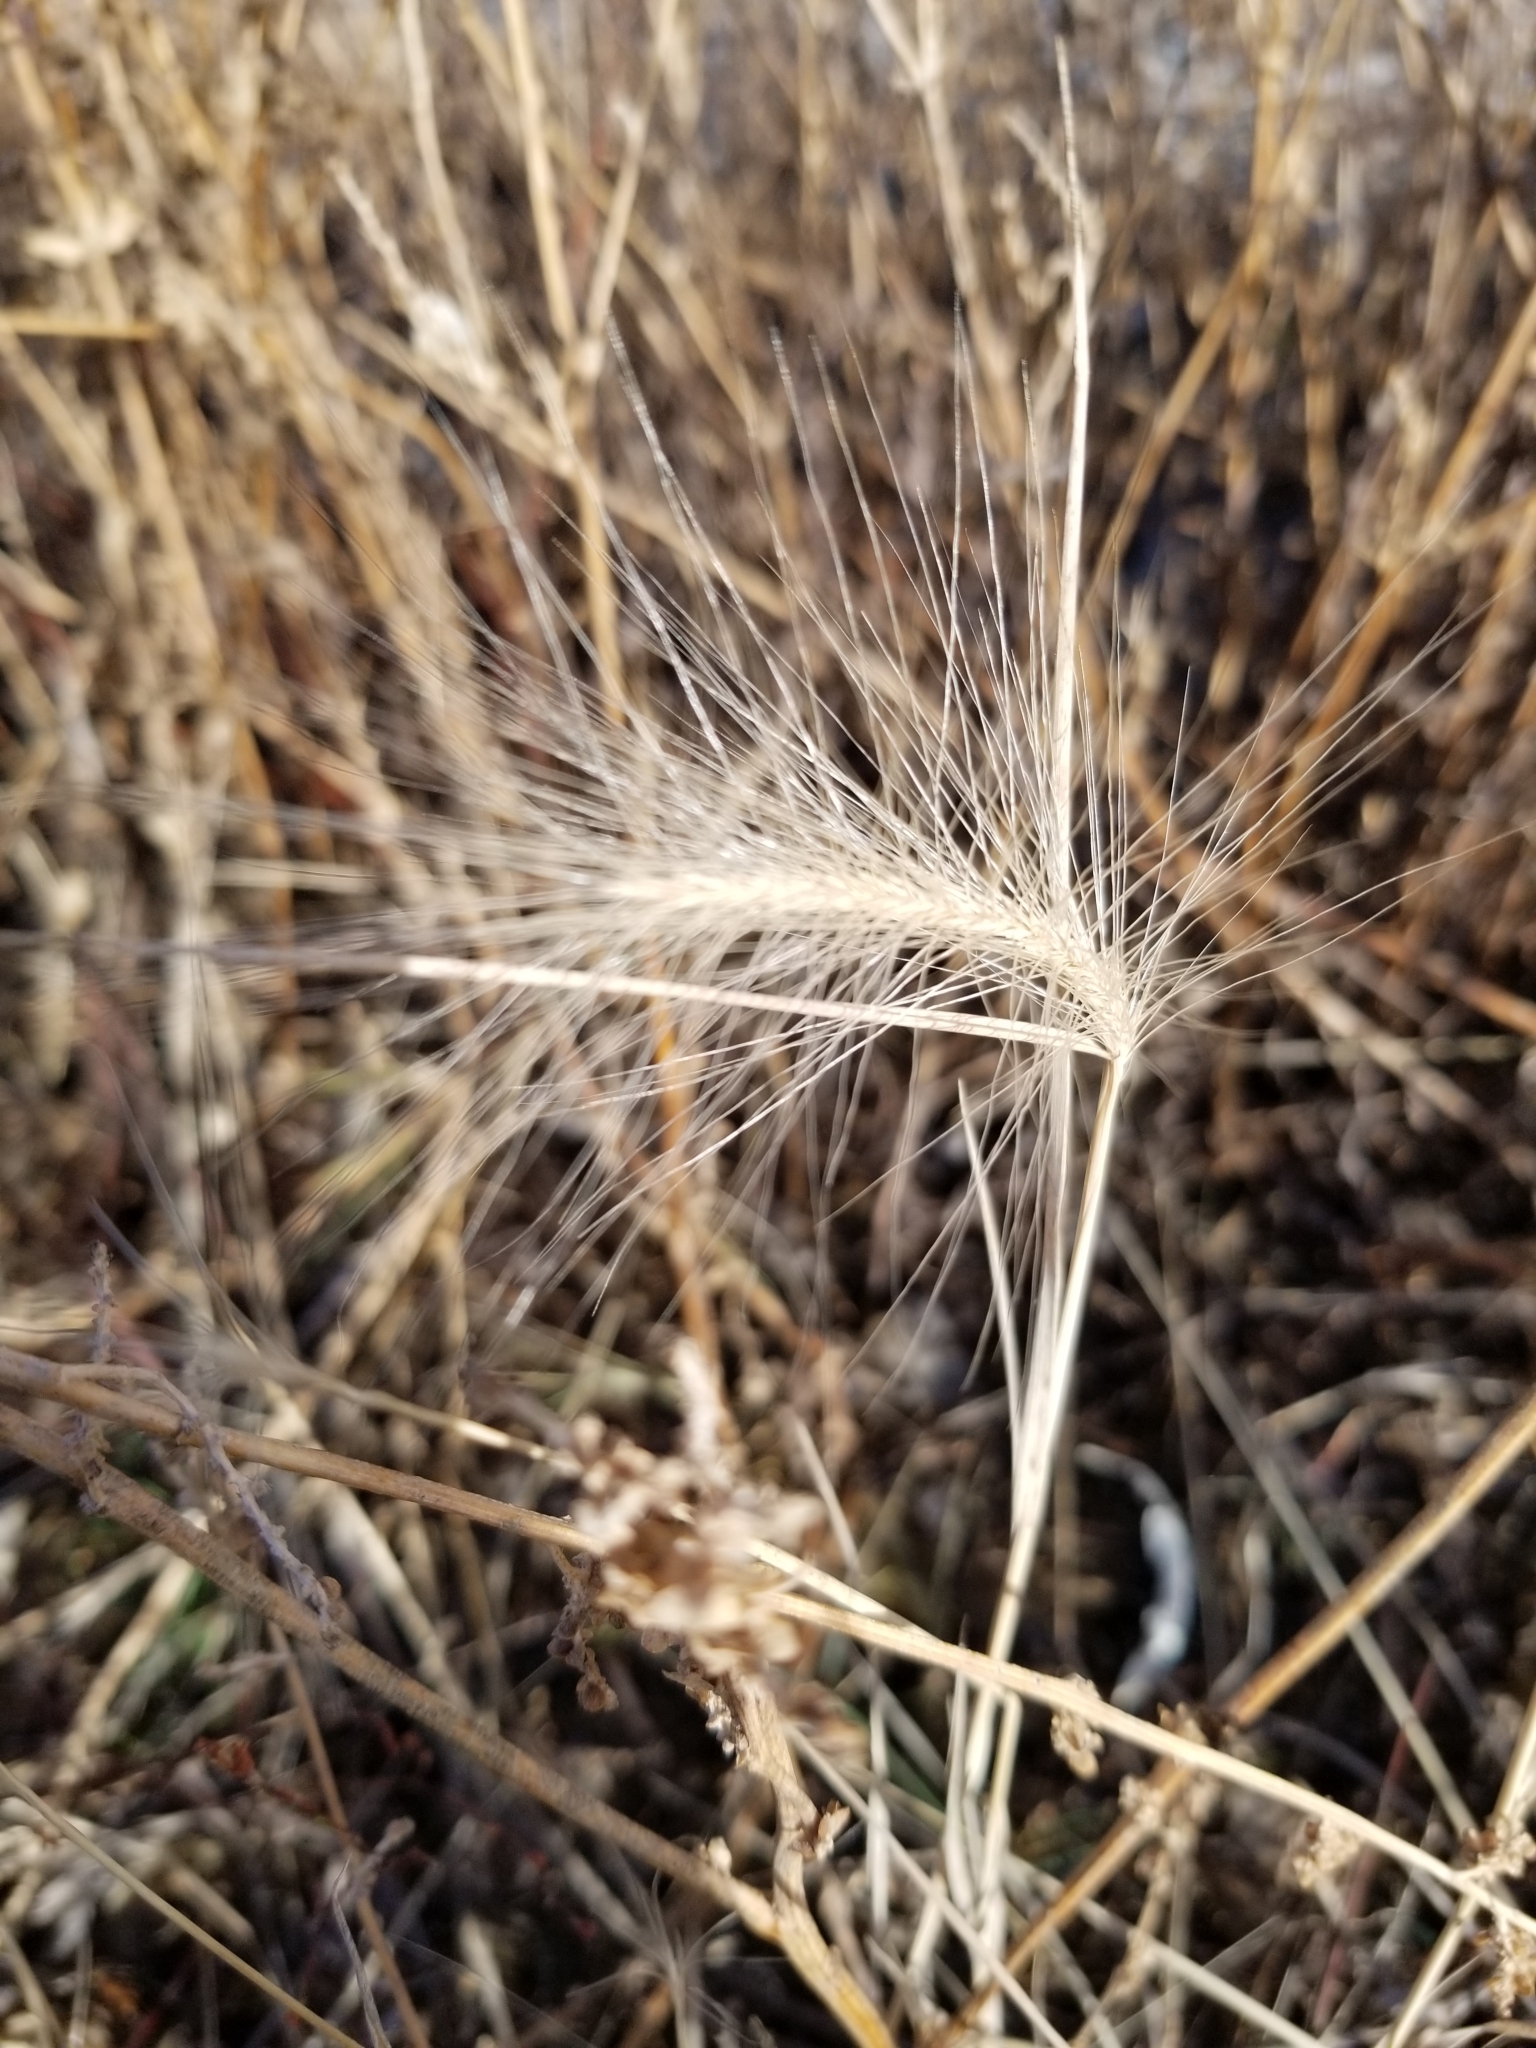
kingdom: Plantae
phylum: Tracheophyta
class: Liliopsida
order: Poales
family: Poaceae
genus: Hordeum
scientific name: Hordeum jubatum
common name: Foxtail barley
